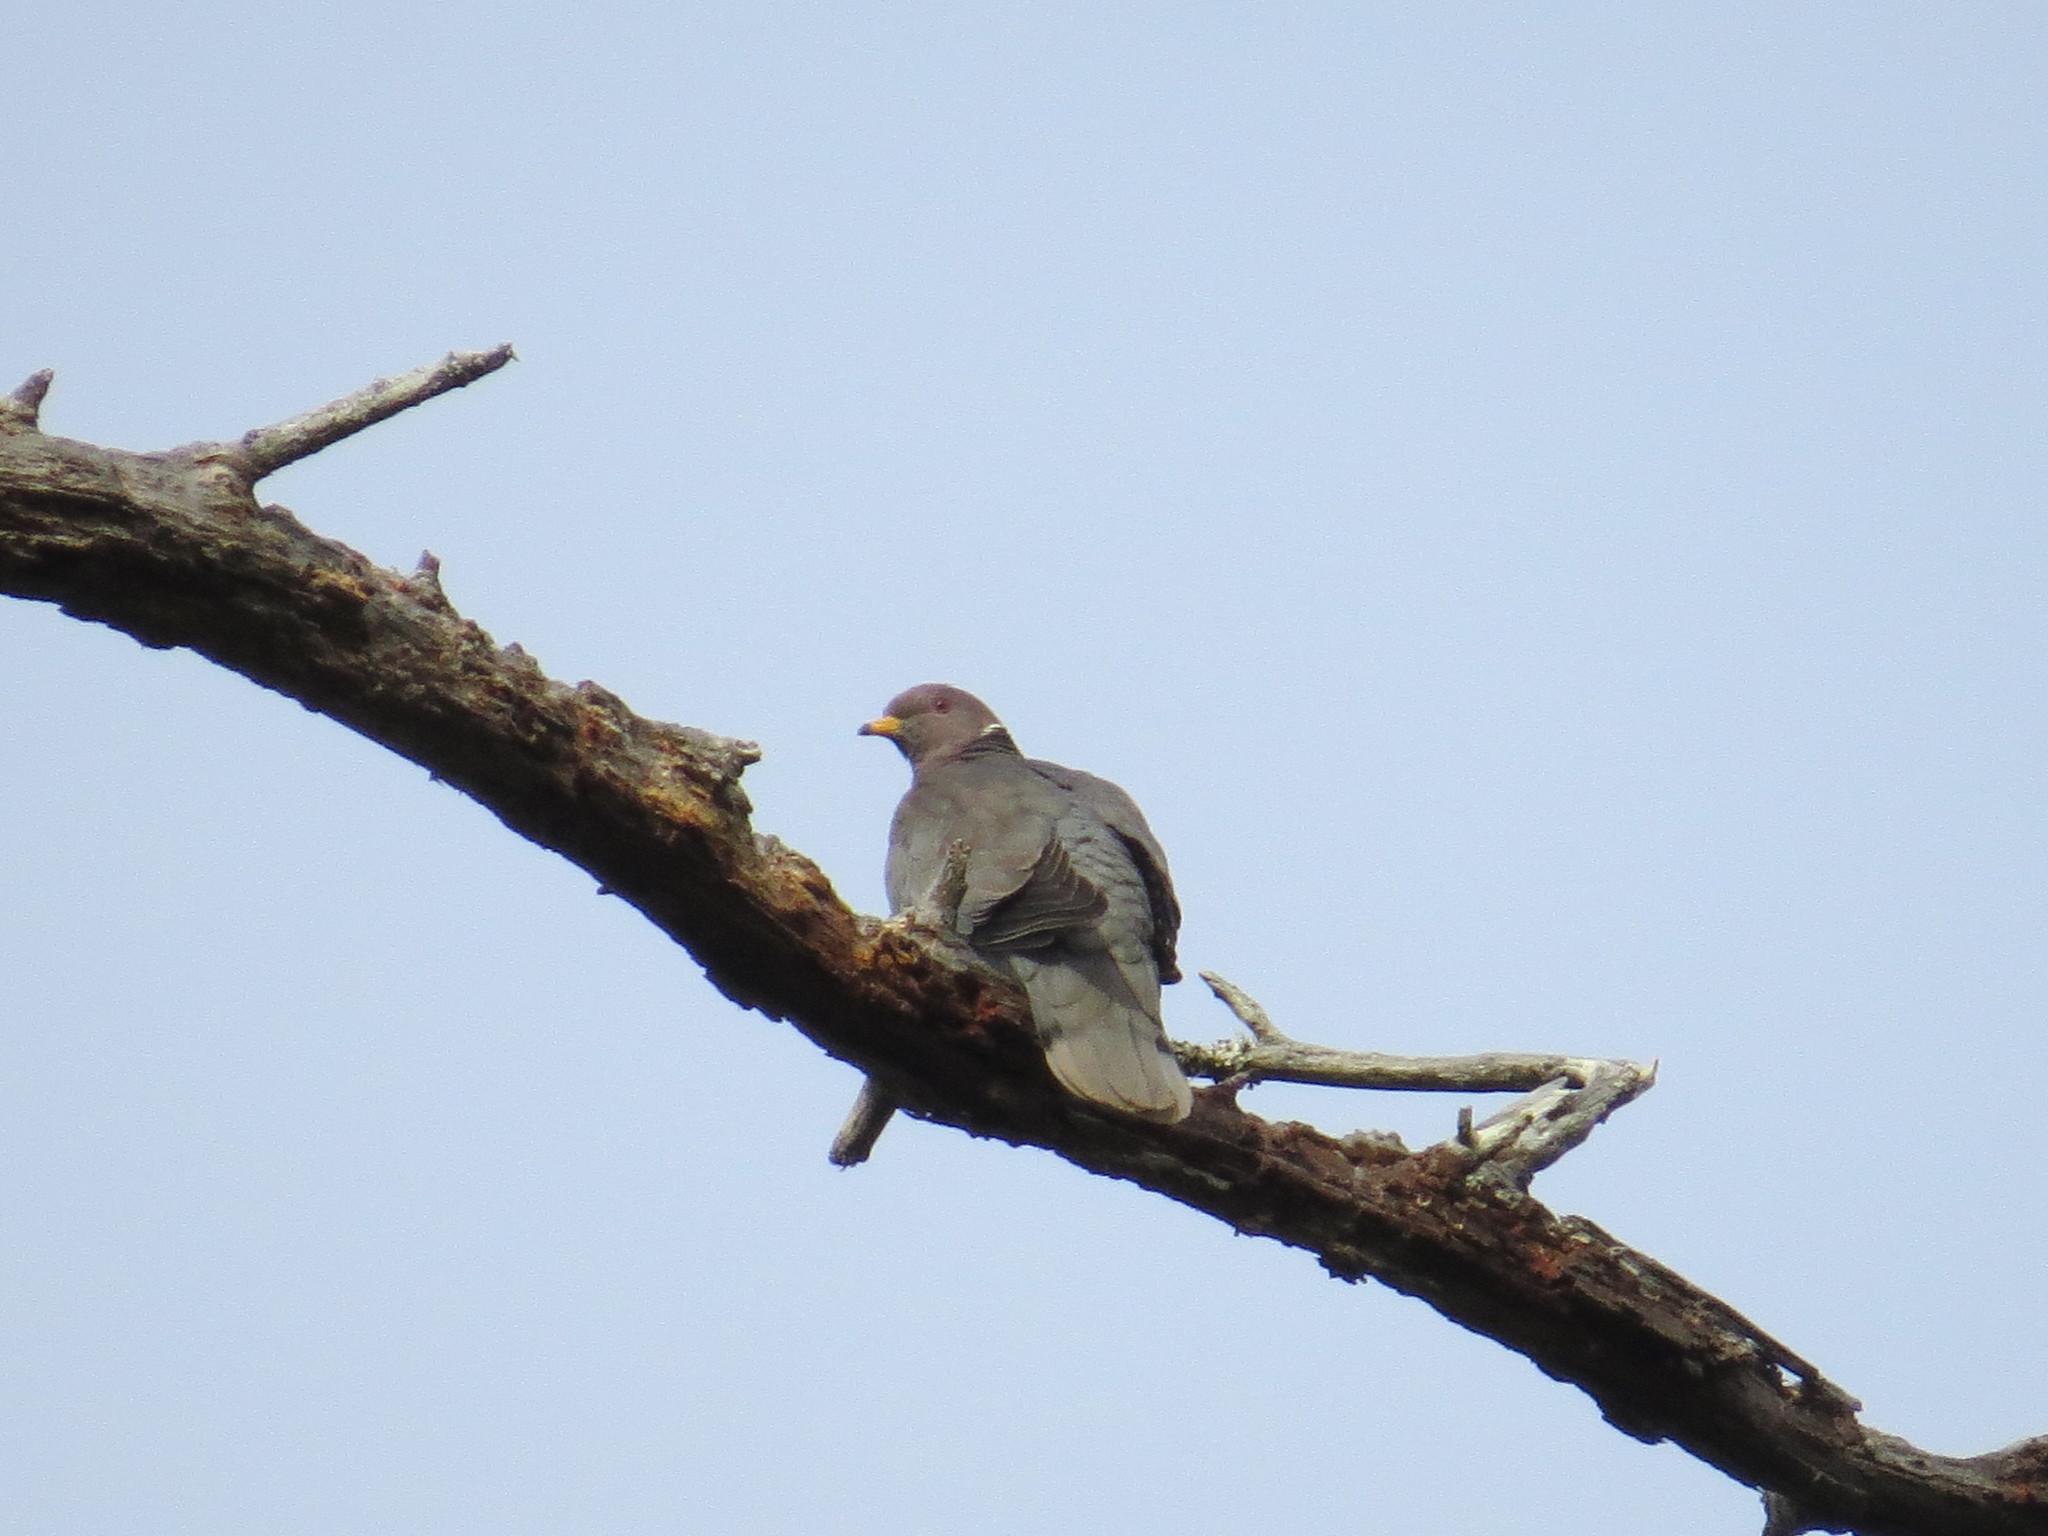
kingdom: Animalia
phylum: Chordata
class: Aves
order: Columbiformes
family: Columbidae
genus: Patagioenas
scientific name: Patagioenas fasciata
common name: Band-tailed pigeon
